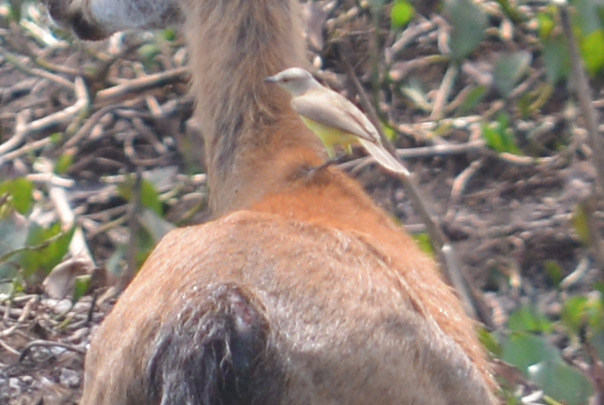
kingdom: Animalia
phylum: Chordata
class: Aves
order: Passeriformes
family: Tyrannidae
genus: Machetornis
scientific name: Machetornis rixosa
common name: Cattle tyrant
